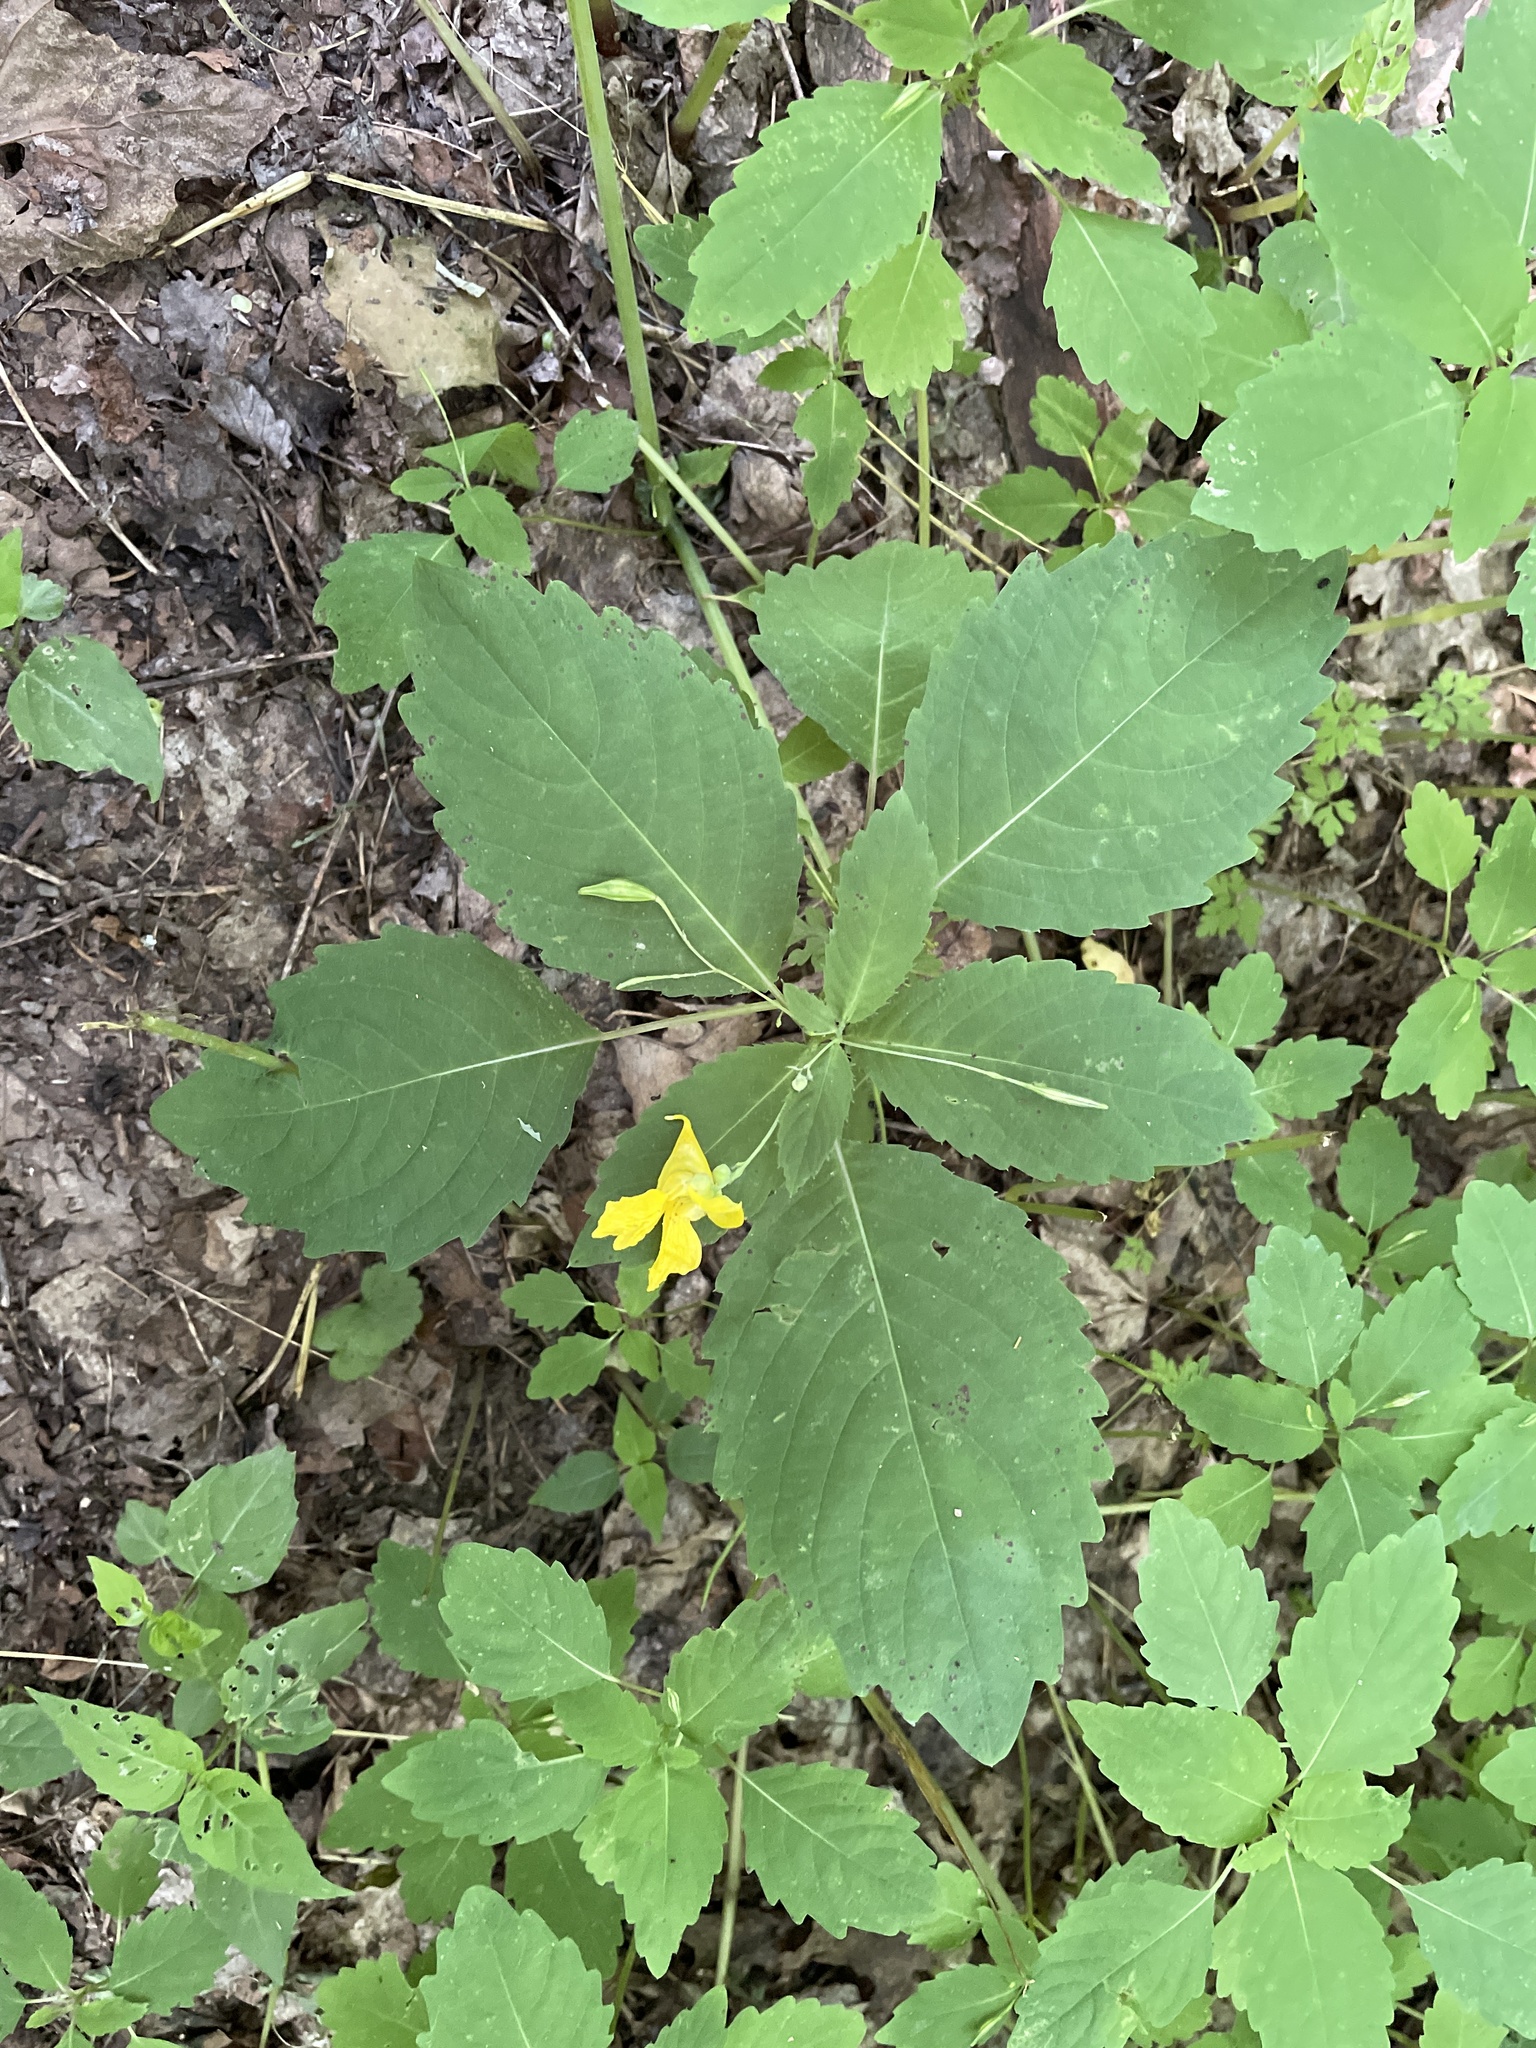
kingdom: Plantae
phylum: Tracheophyta
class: Magnoliopsida
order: Ericales
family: Balsaminaceae
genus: Impatiens
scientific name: Impatiens pallida
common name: Pale snapweed
